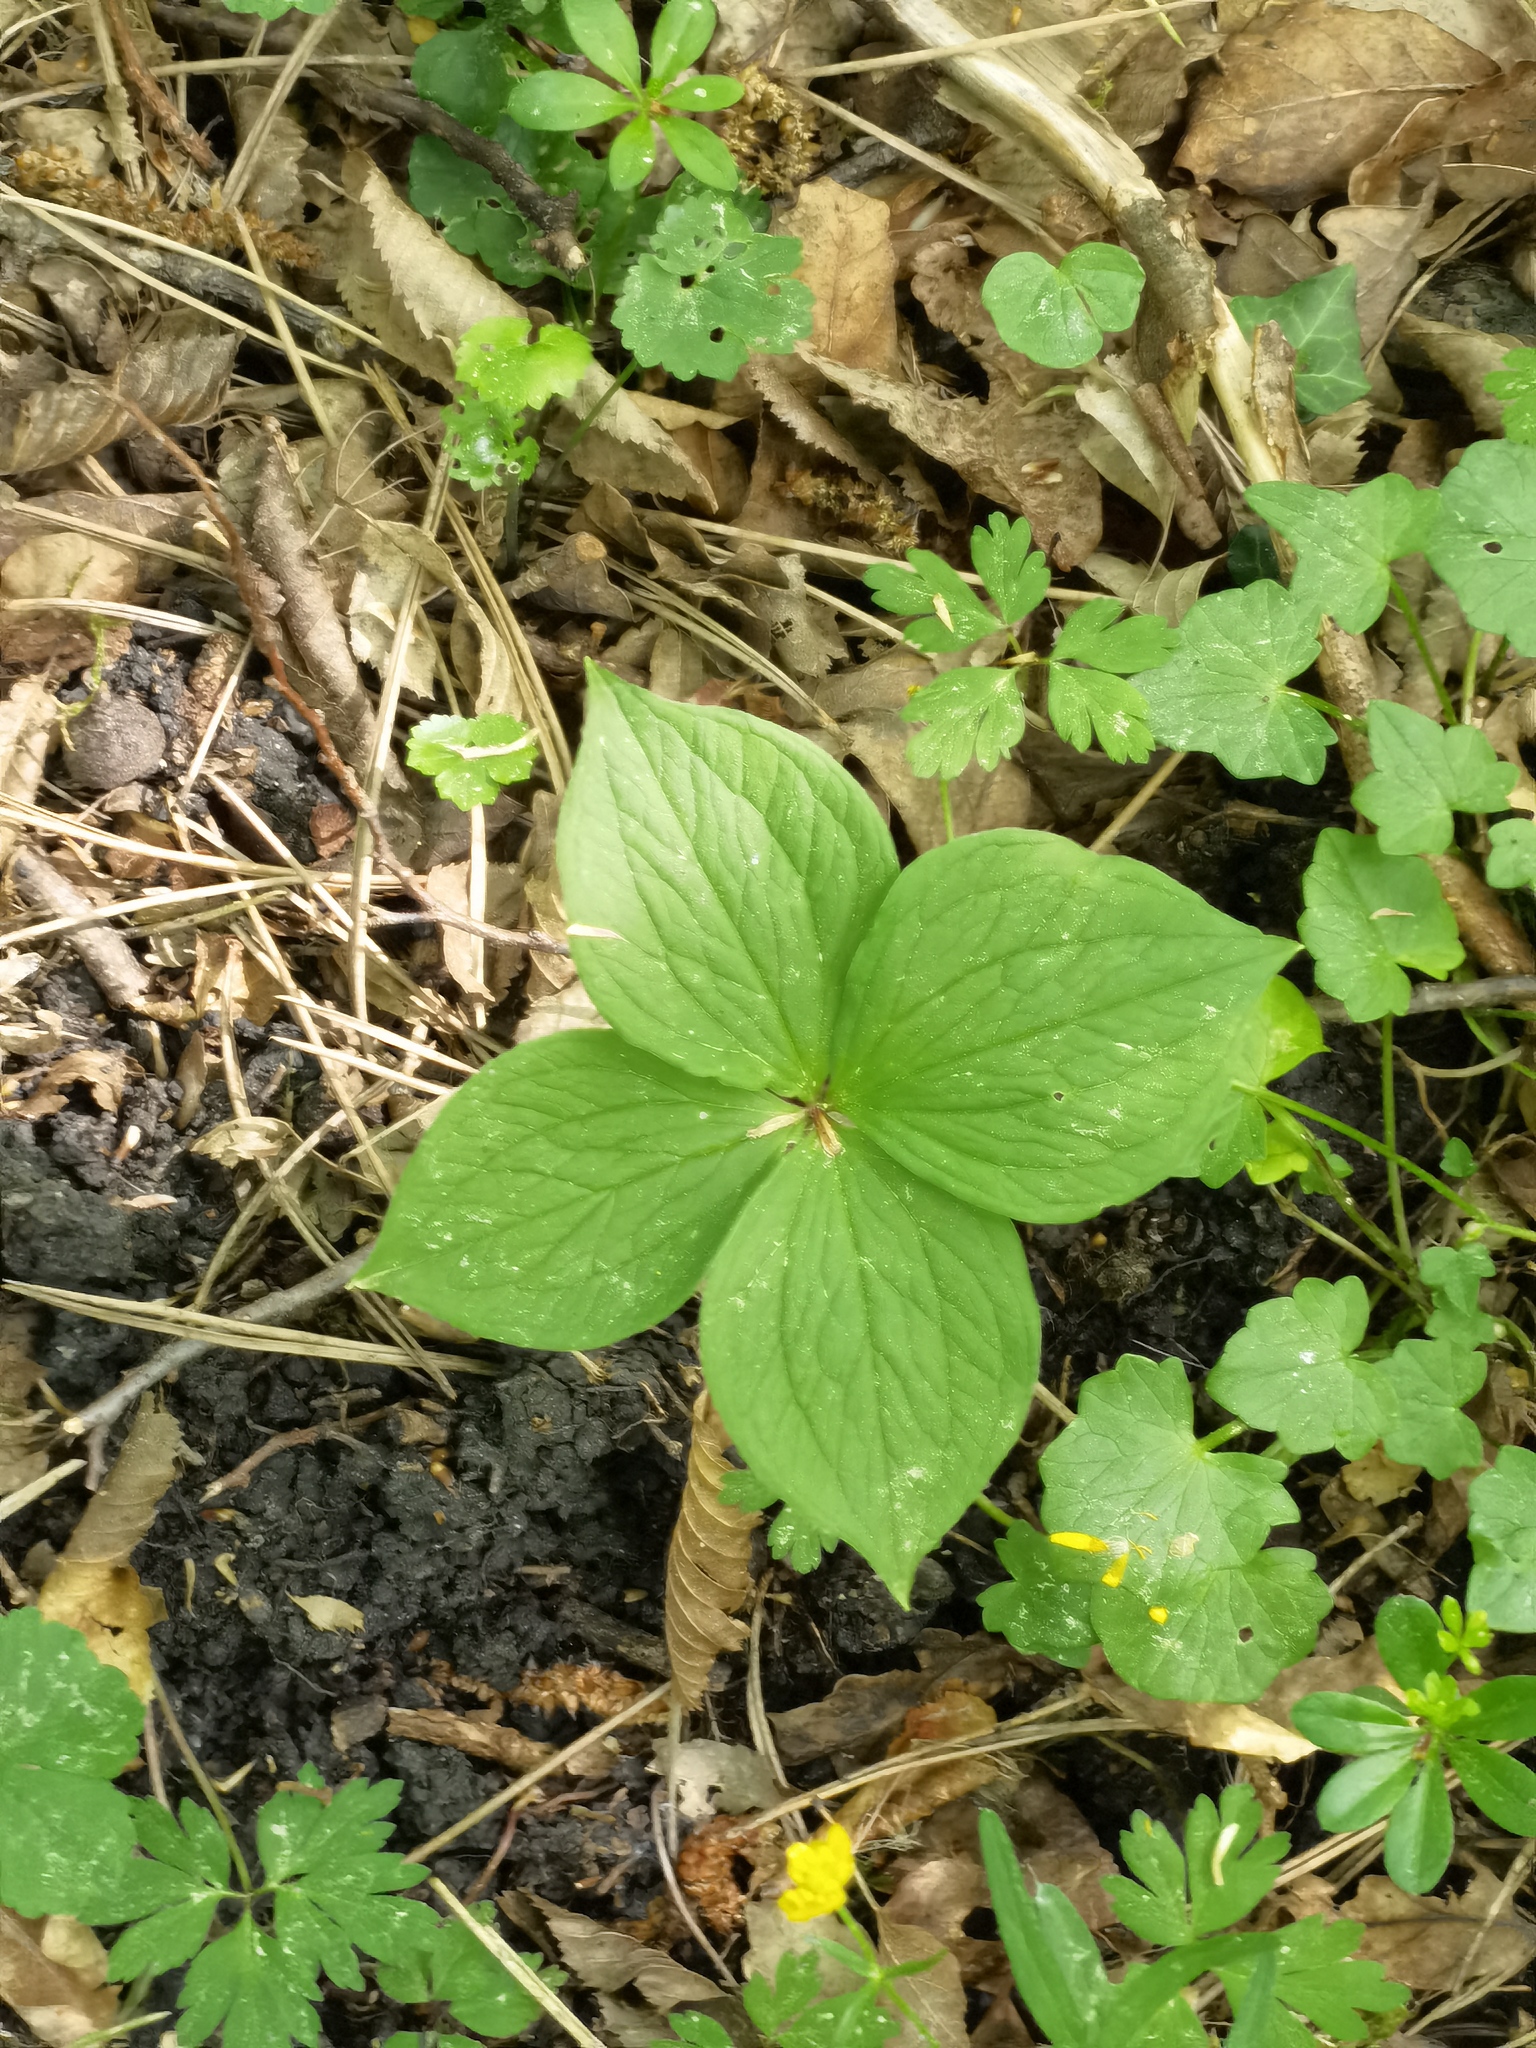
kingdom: Plantae
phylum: Tracheophyta
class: Liliopsida
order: Liliales
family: Melanthiaceae
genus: Paris
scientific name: Paris quadrifolia
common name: Herb-paris
